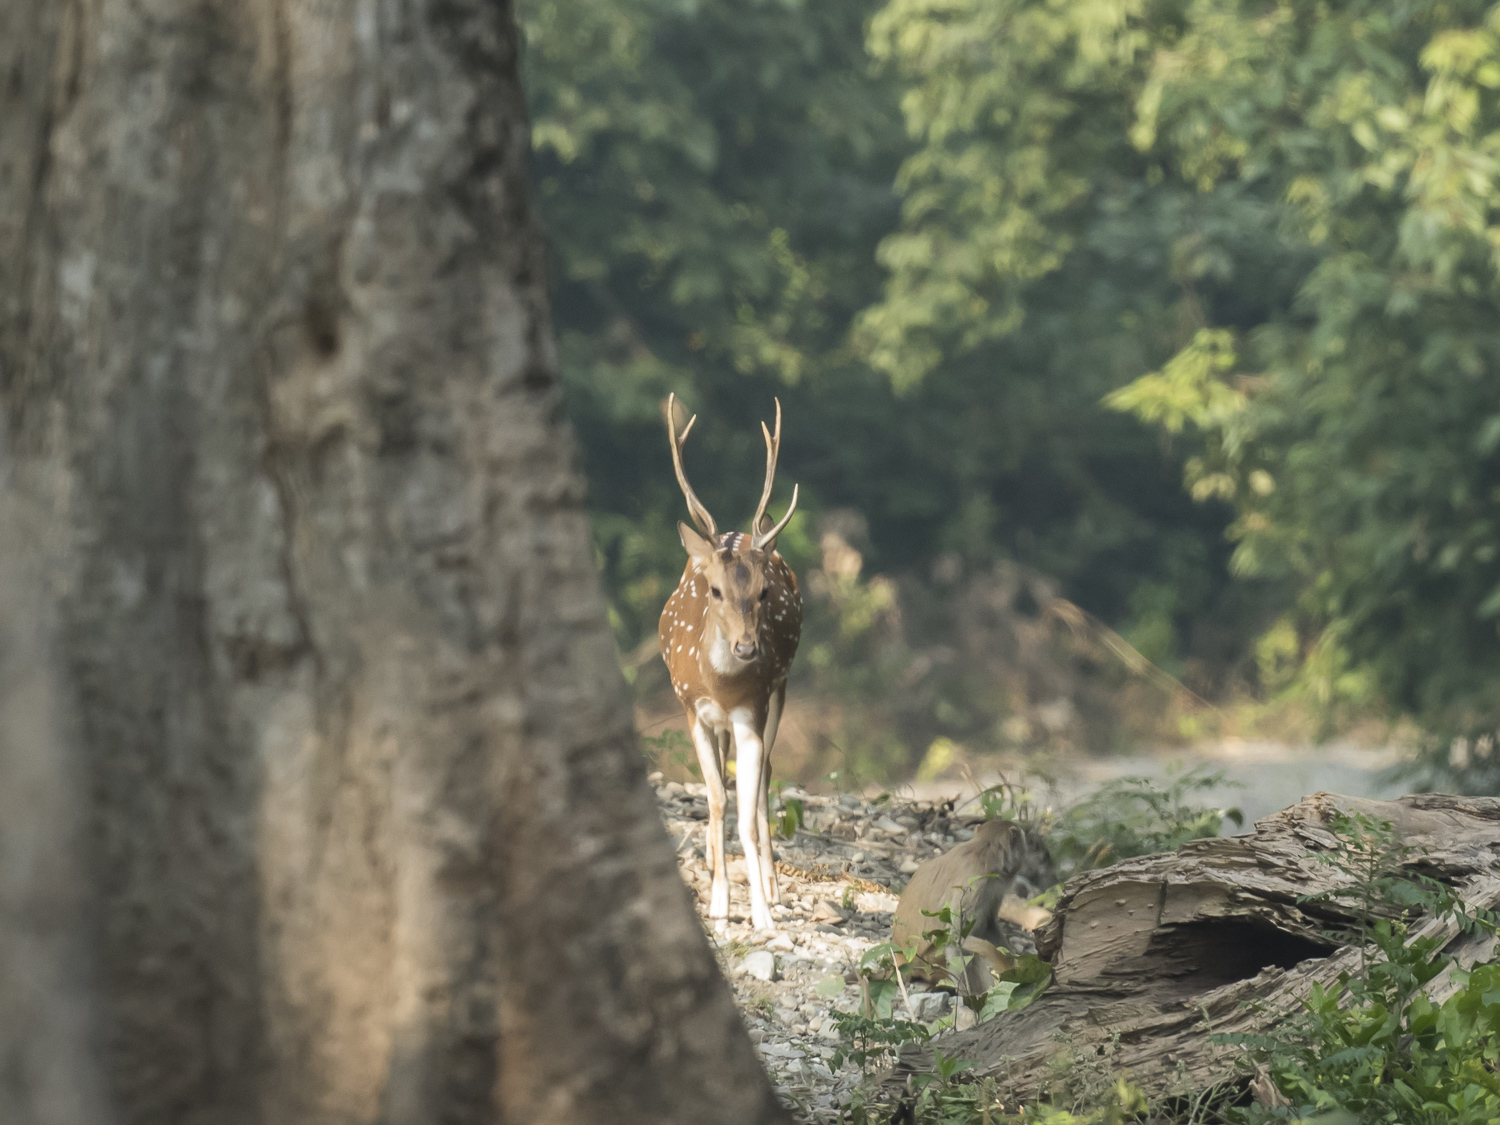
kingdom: Animalia
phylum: Chordata
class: Mammalia
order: Artiodactyla
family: Cervidae
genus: Axis
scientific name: Axis axis
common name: Chital
